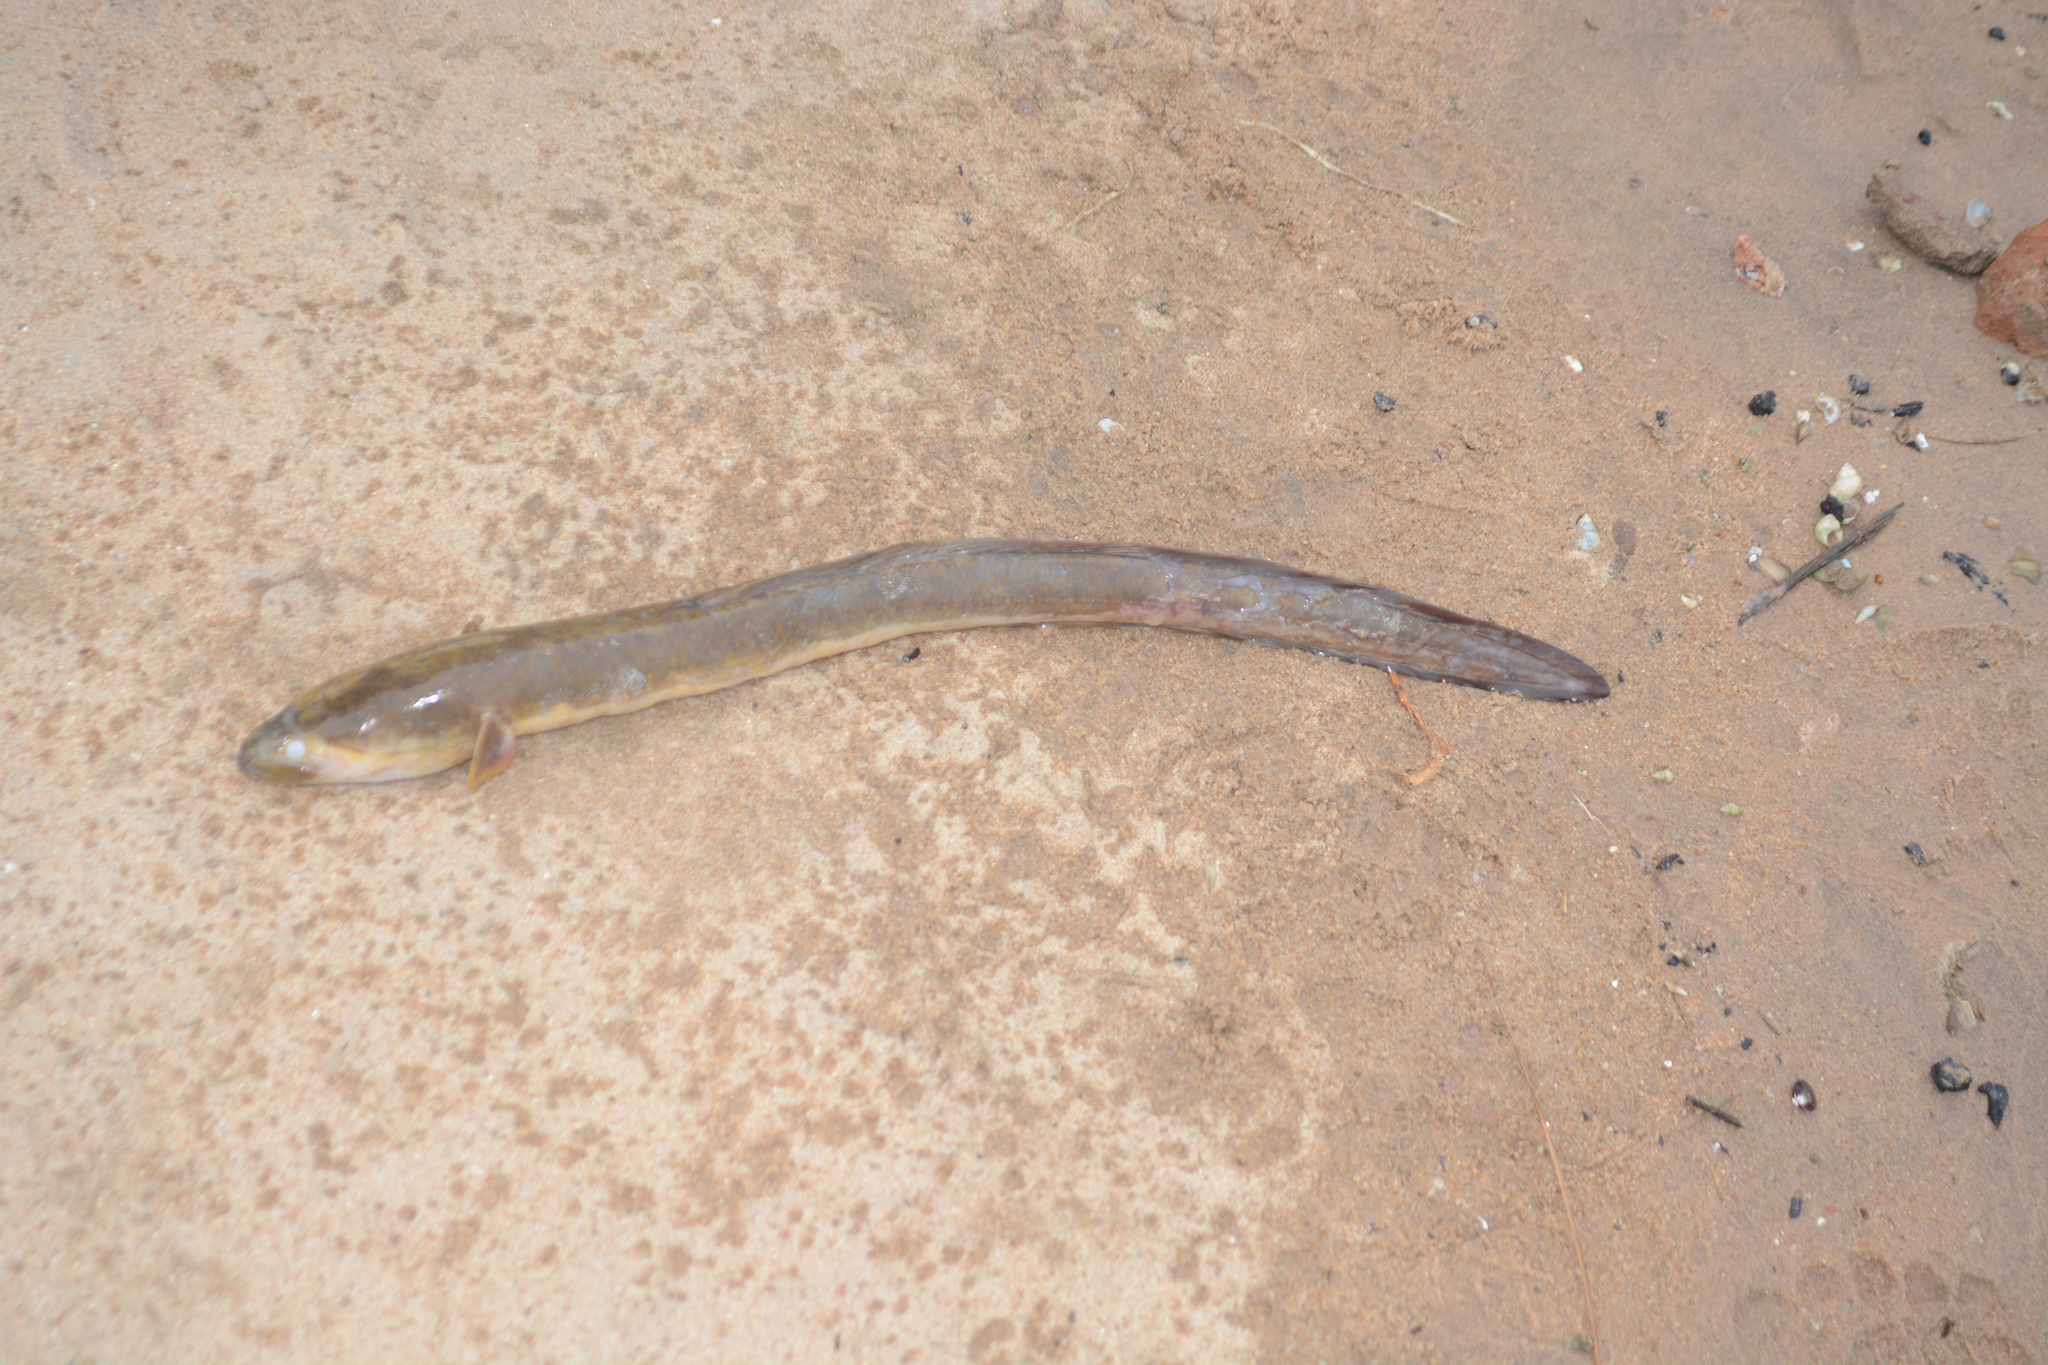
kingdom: Animalia
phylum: Chordata
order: Synbranchiformes
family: Synbranchidae
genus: Monopterus
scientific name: Monopterus albus
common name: Asian swamp eel
